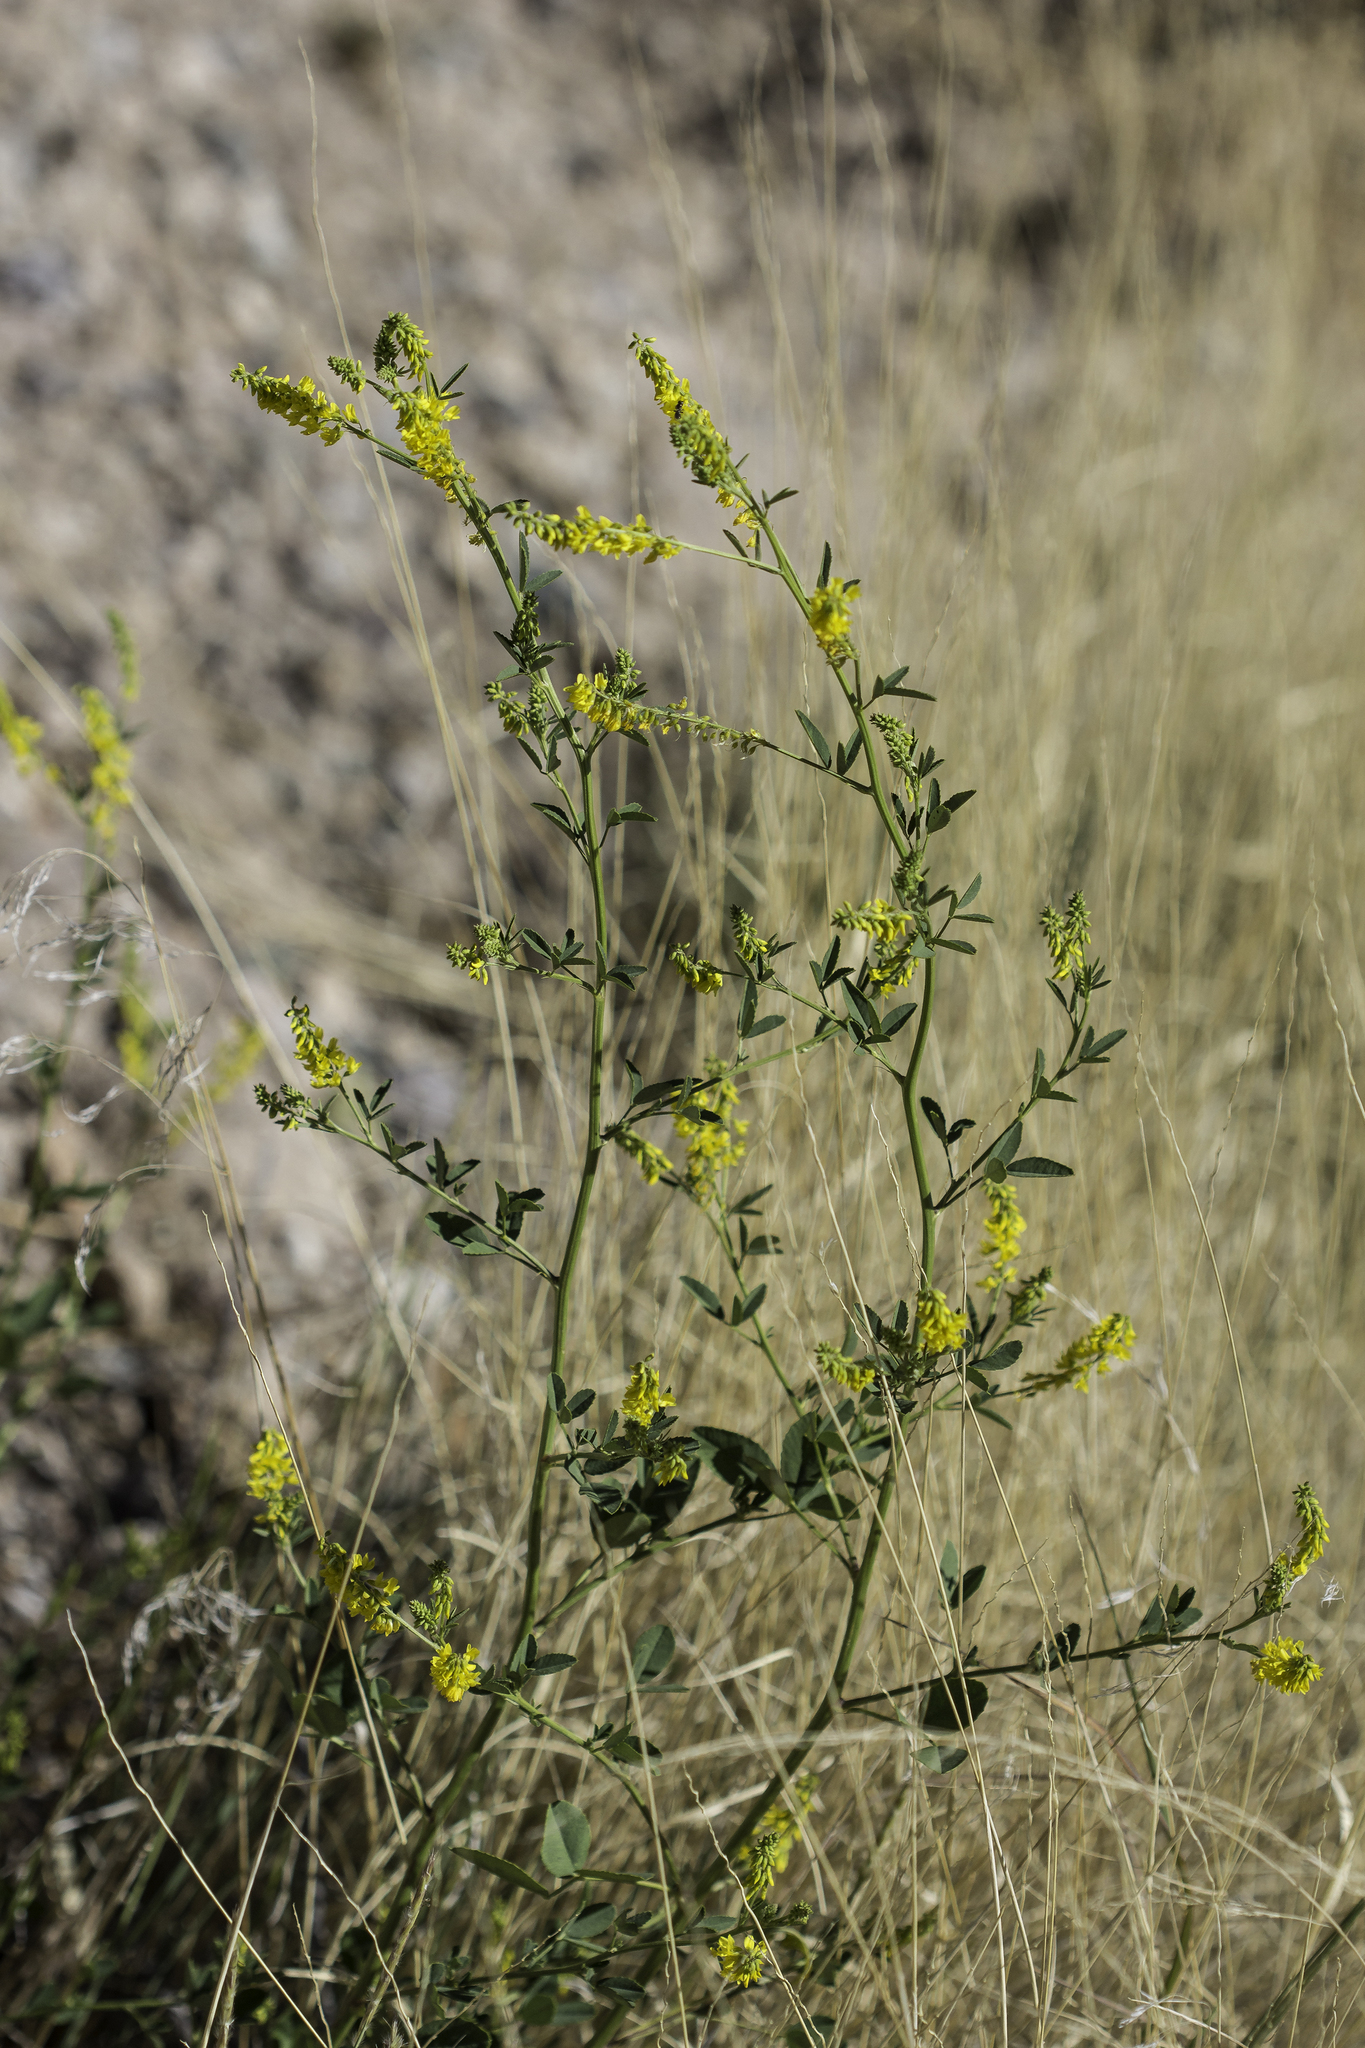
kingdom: Plantae
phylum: Tracheophyta
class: Magnoliopsida
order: Fabales
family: Fabaceae
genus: Melilotus
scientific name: Melilotus officinalis
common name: Sweetclover
